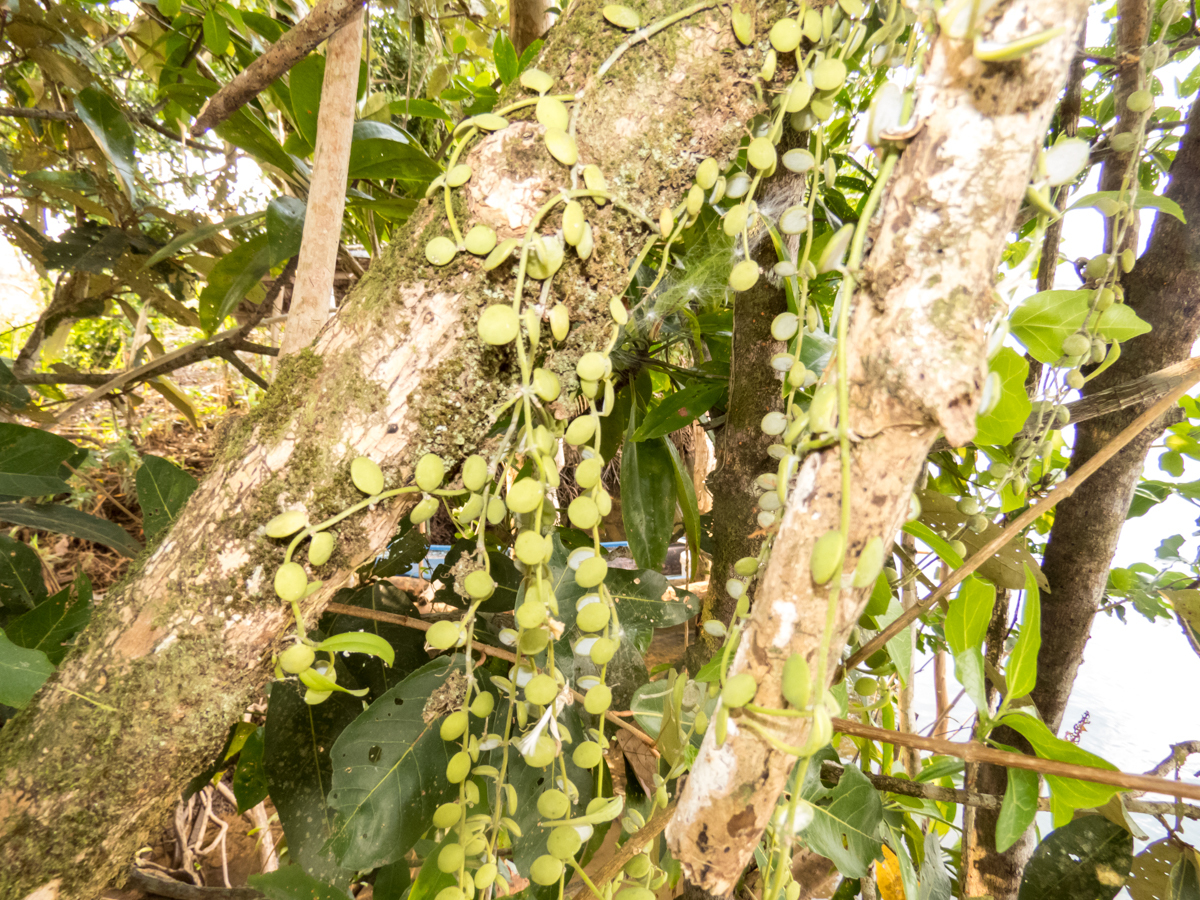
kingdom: Plantae
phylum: Tracheophyta
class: Magnoliopsida
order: Gentianales
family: Apocynaceae
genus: Dischidia
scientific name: Dischidia nummularia
